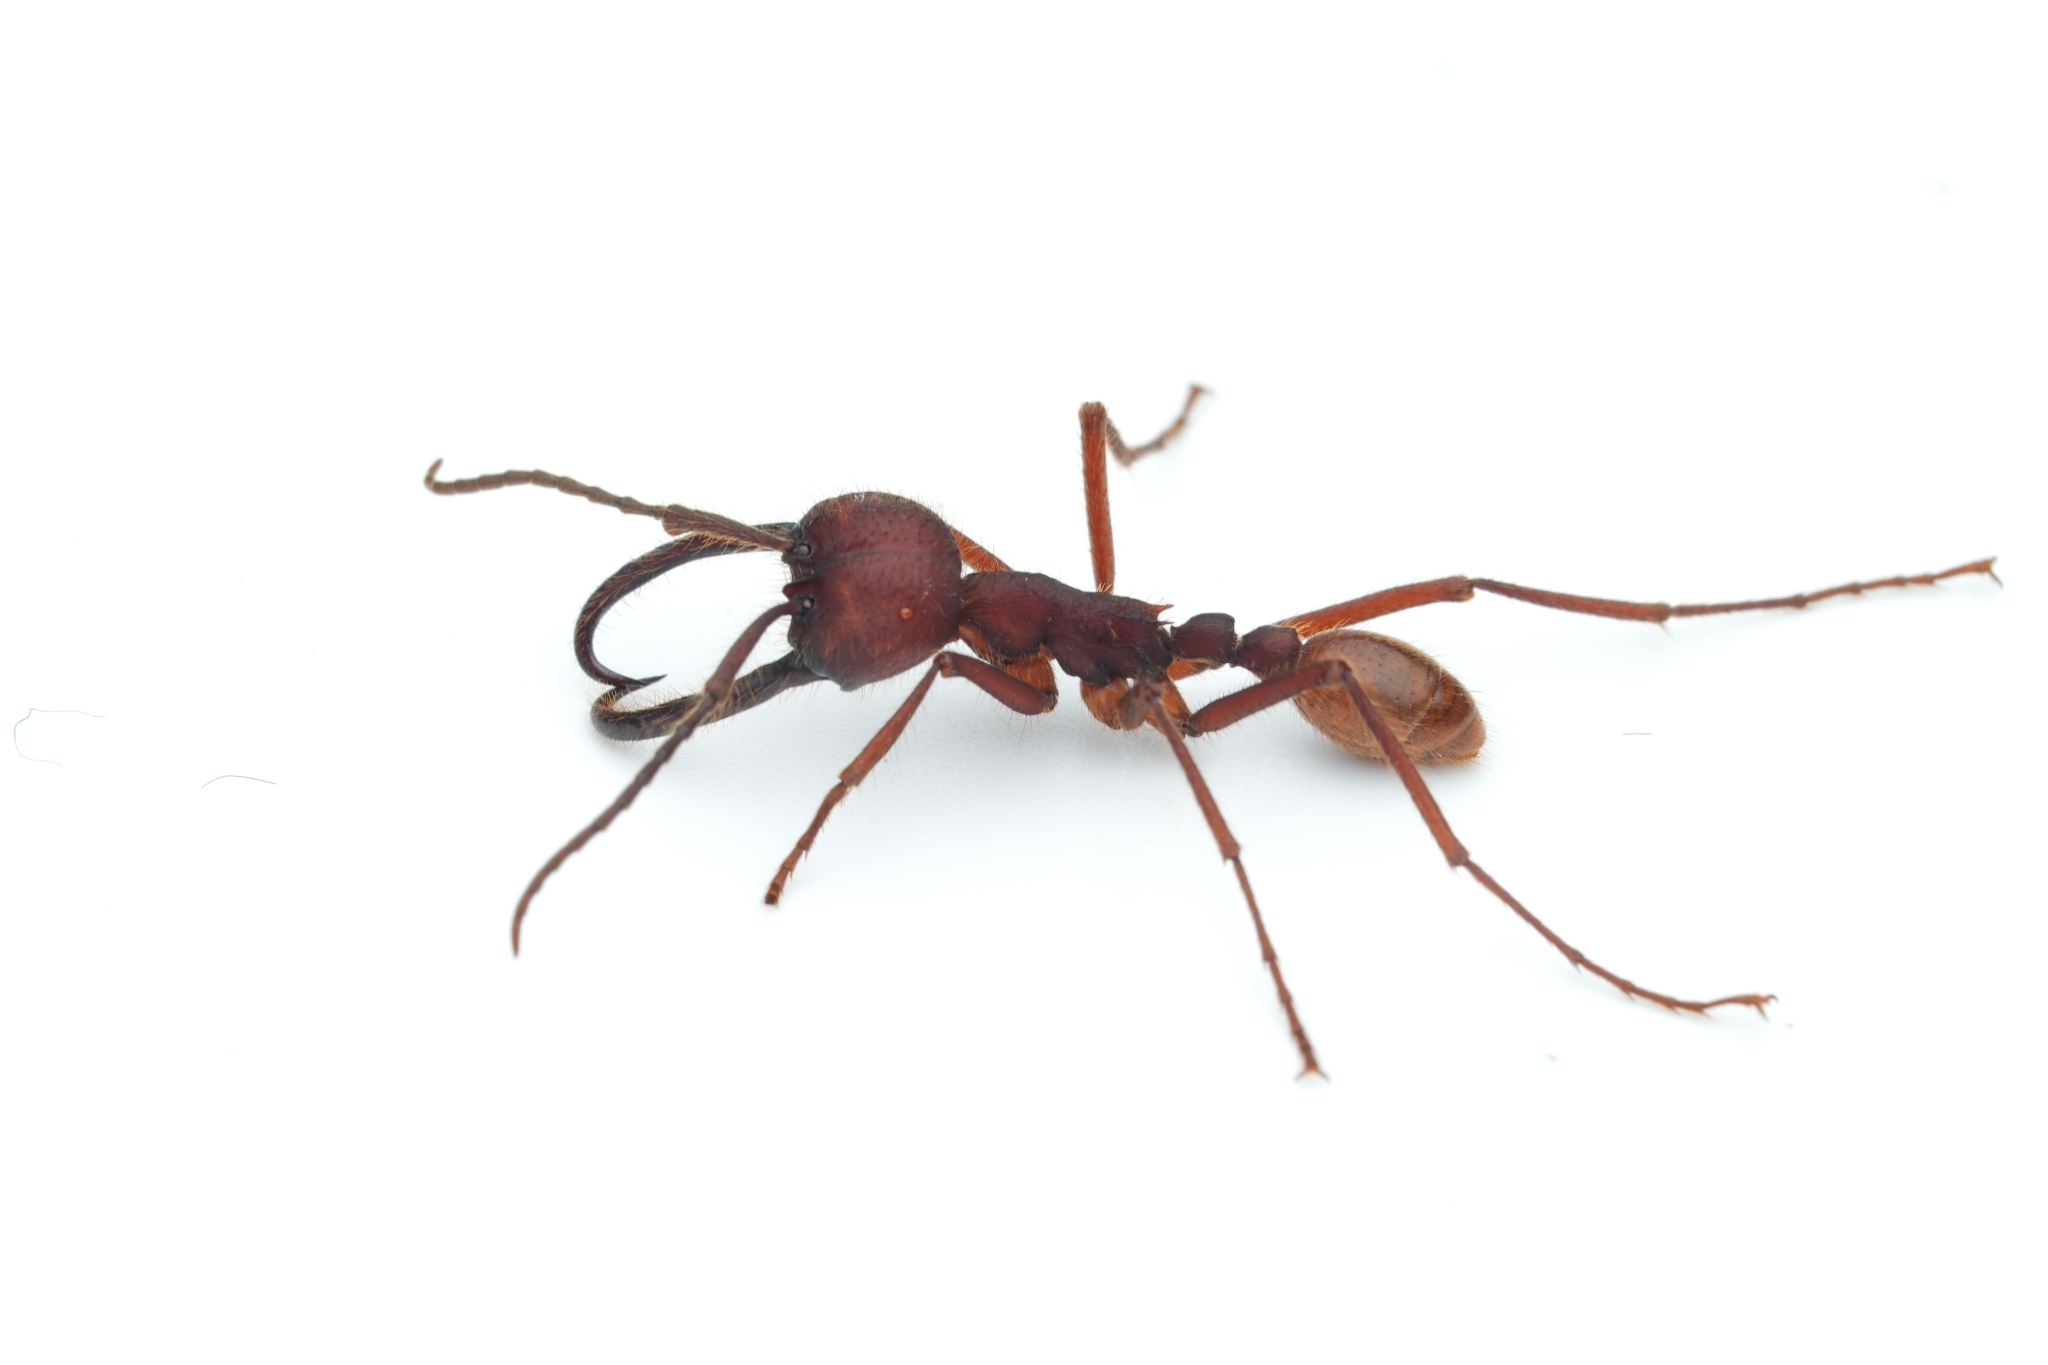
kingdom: Animalia
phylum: Arthropoda
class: Insecta
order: Hymenoptera
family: Formicidae
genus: Eciton
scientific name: Eciton dulcium
